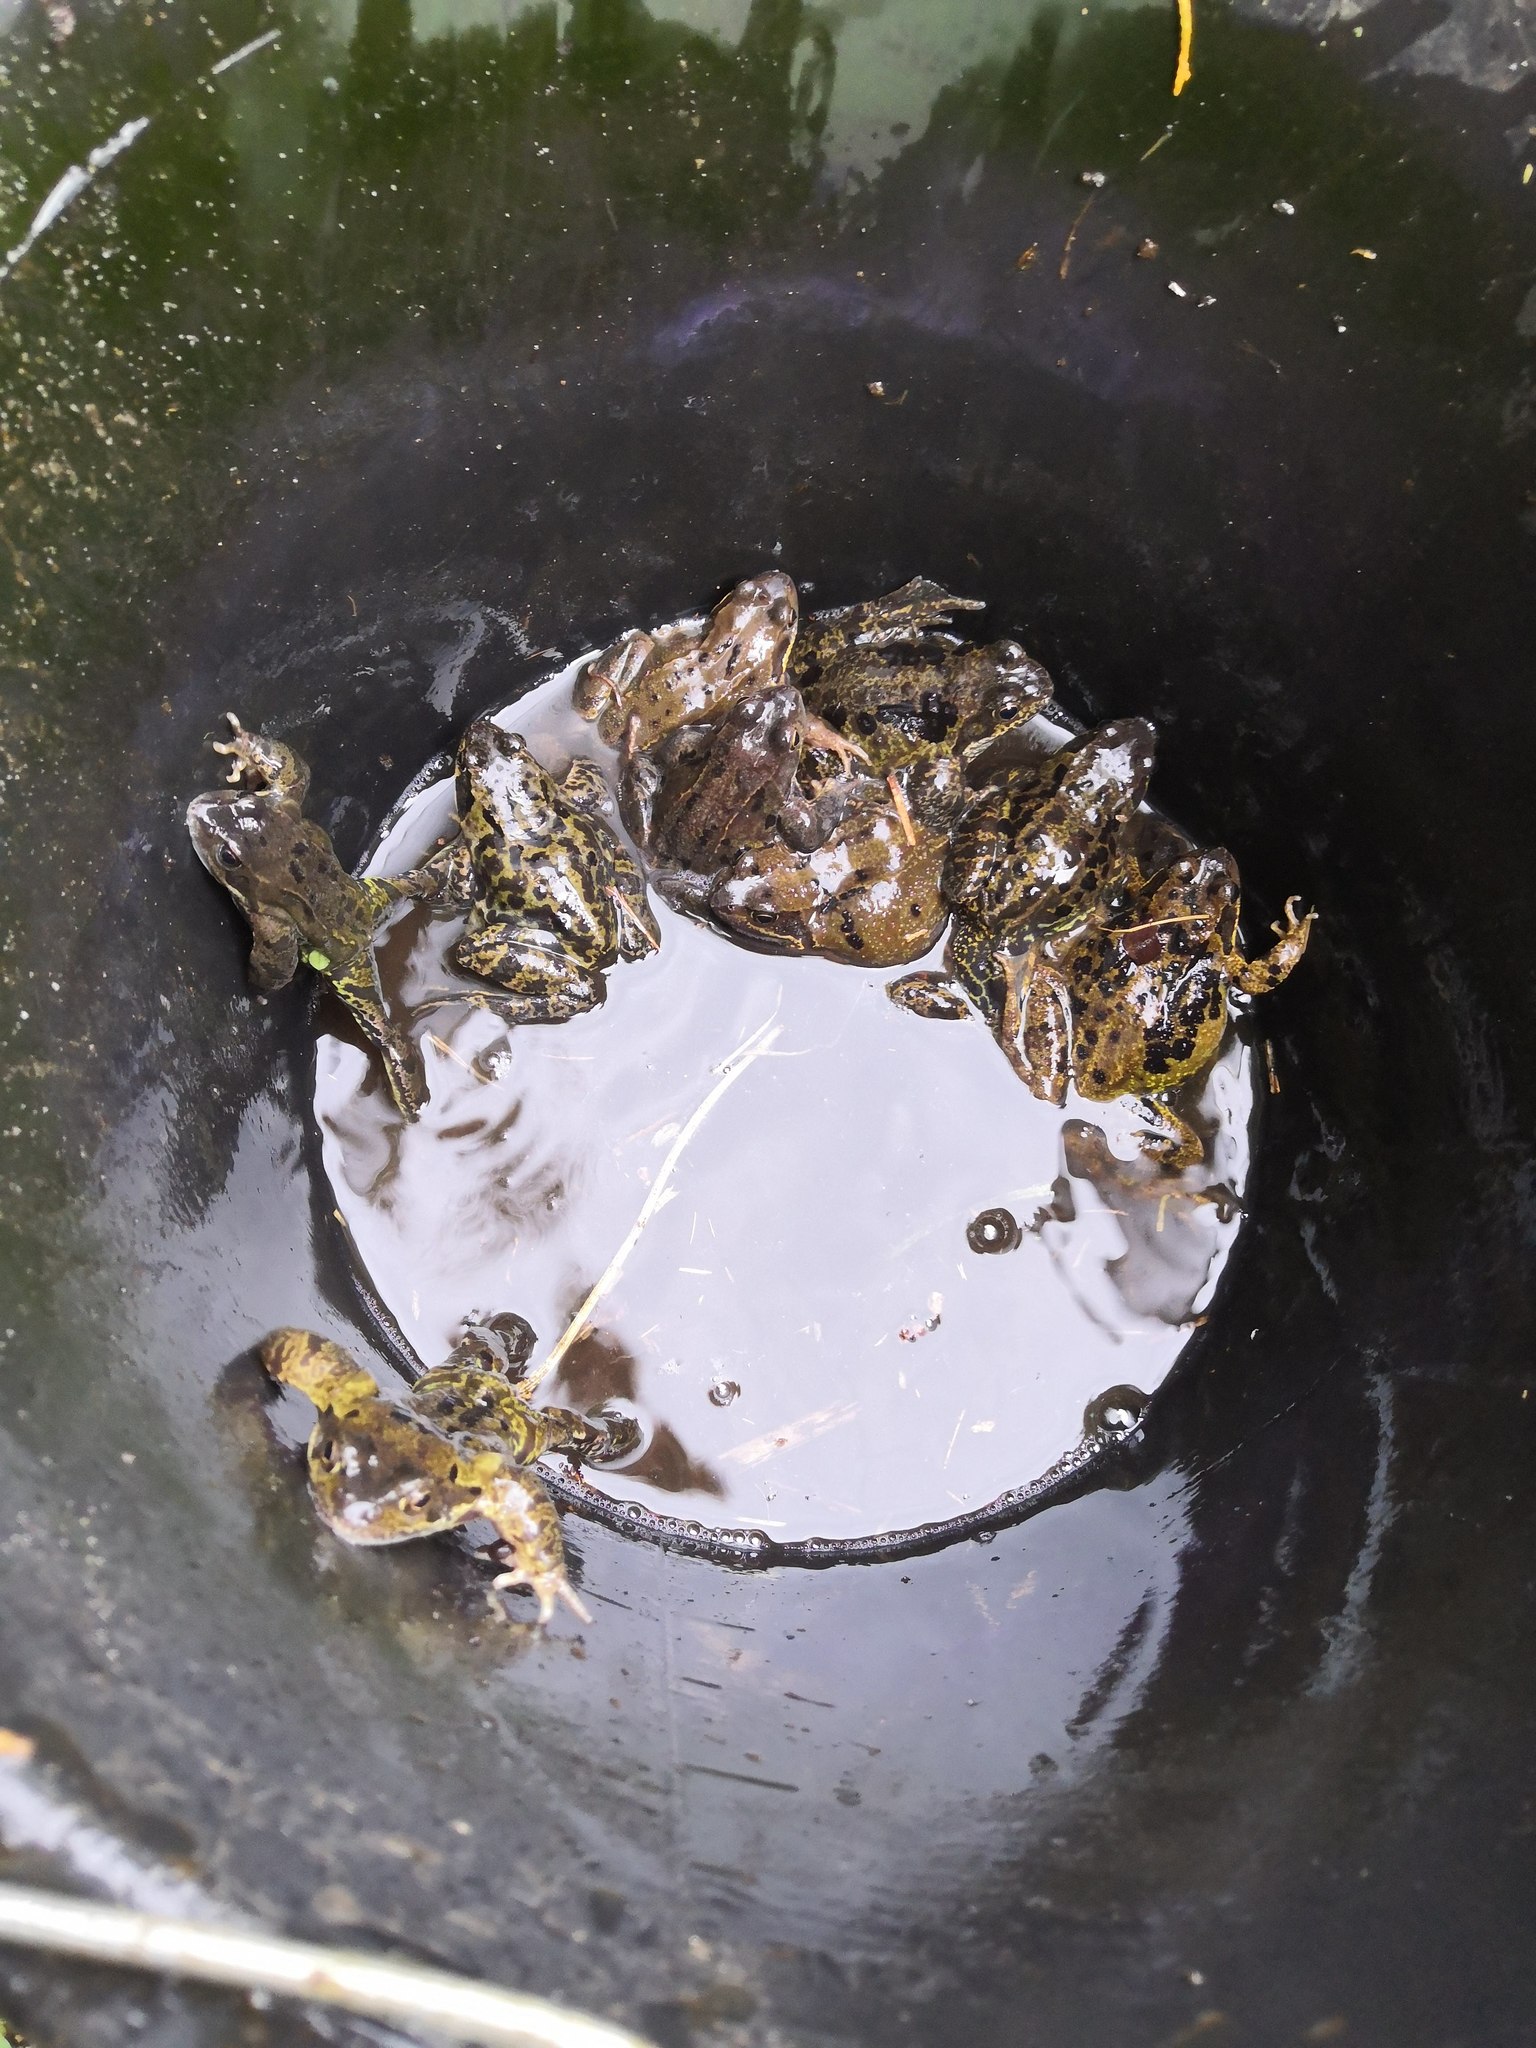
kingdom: Animalia
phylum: Chordata
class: Amphibia
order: Anura
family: Ranidae
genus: Rana
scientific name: Rana temporaria
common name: Common frog
